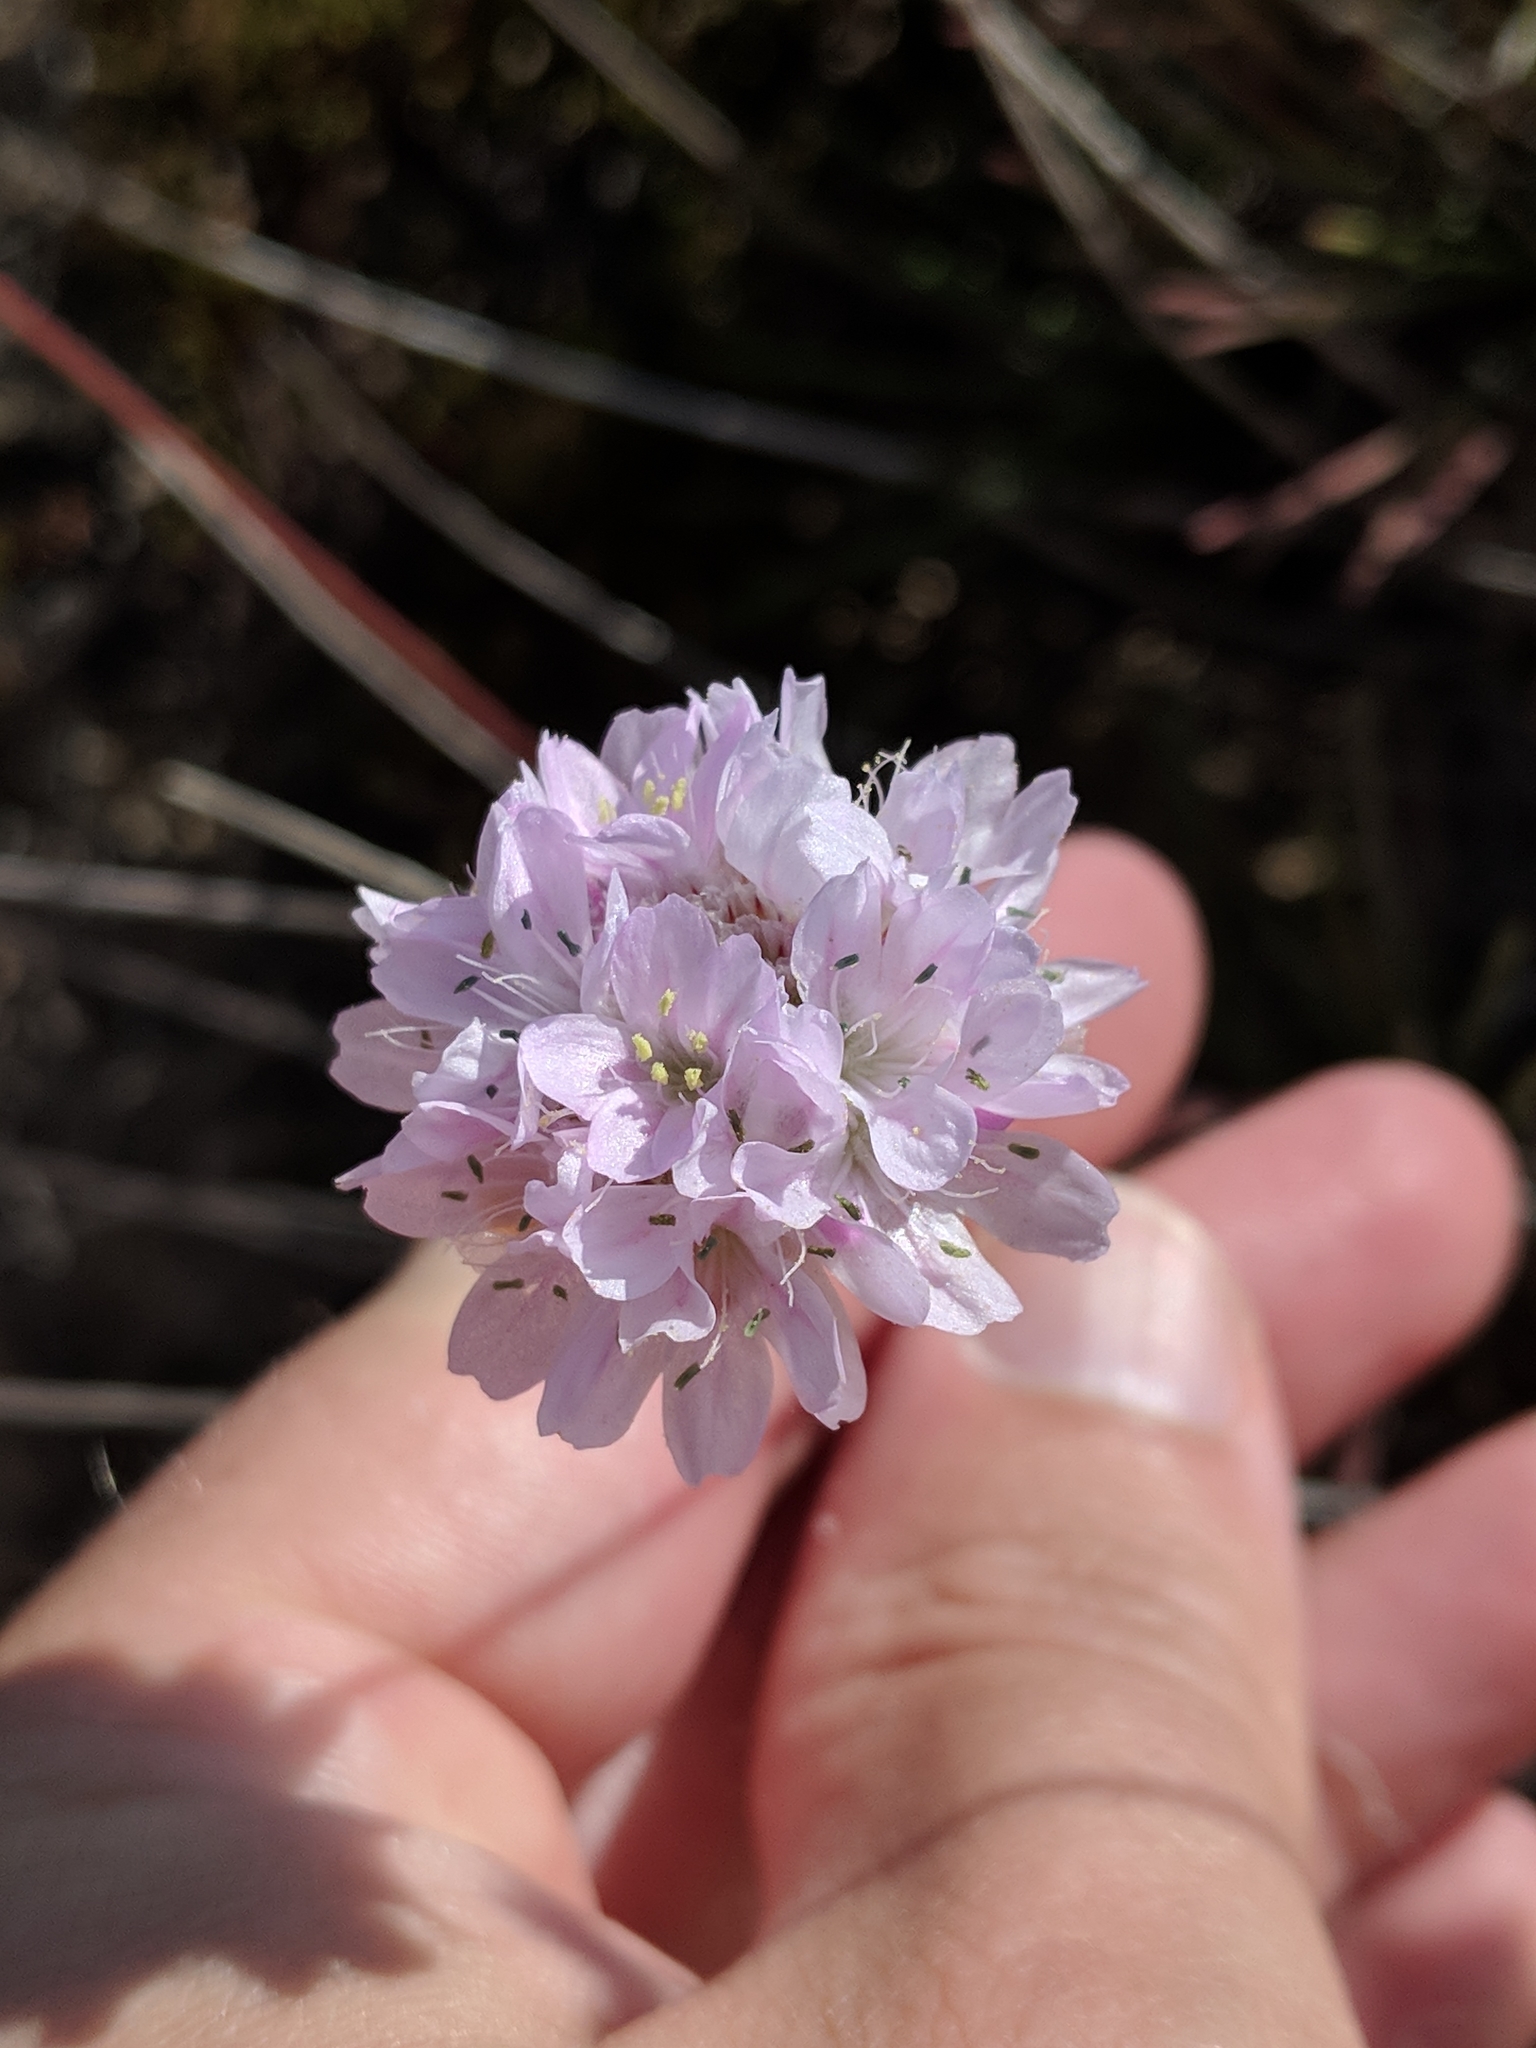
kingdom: Plantae
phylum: Tracheophyta
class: Magnoliopsida
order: Caryophyllales
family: Plumbaginaceae
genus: Armeria
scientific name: Armeria pungens
